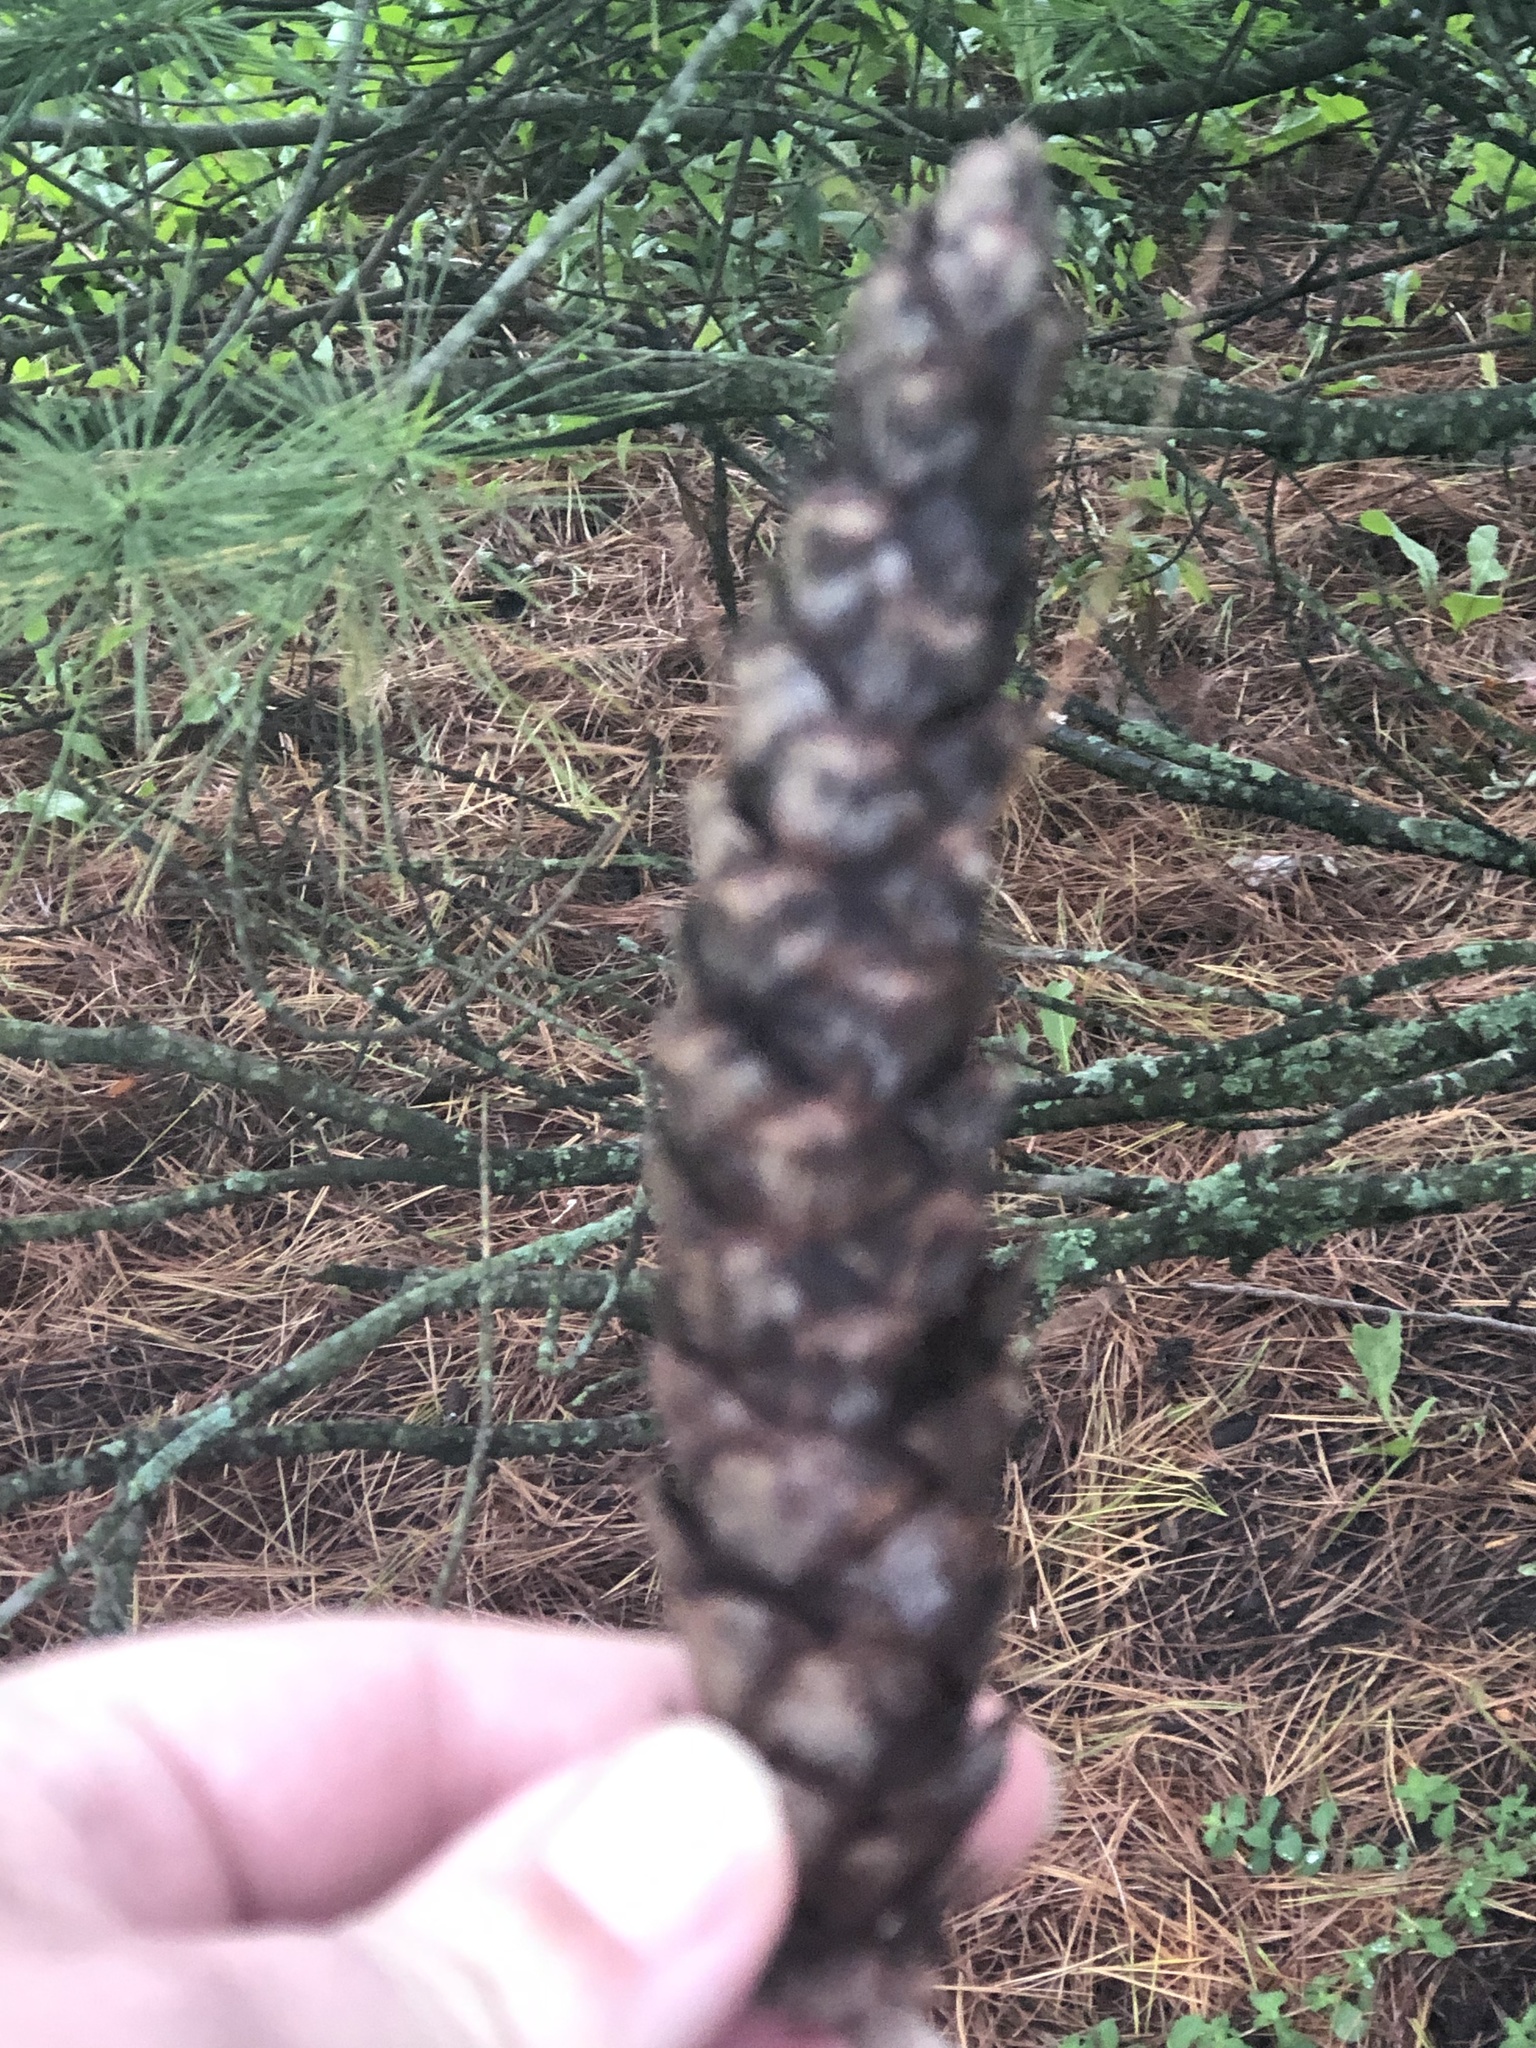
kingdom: Plantae
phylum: Tracheophyta
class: Pinopsida
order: Pinales
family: Pinaceae
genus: Pinus
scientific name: Pinus strobus
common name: Weymouth pine
